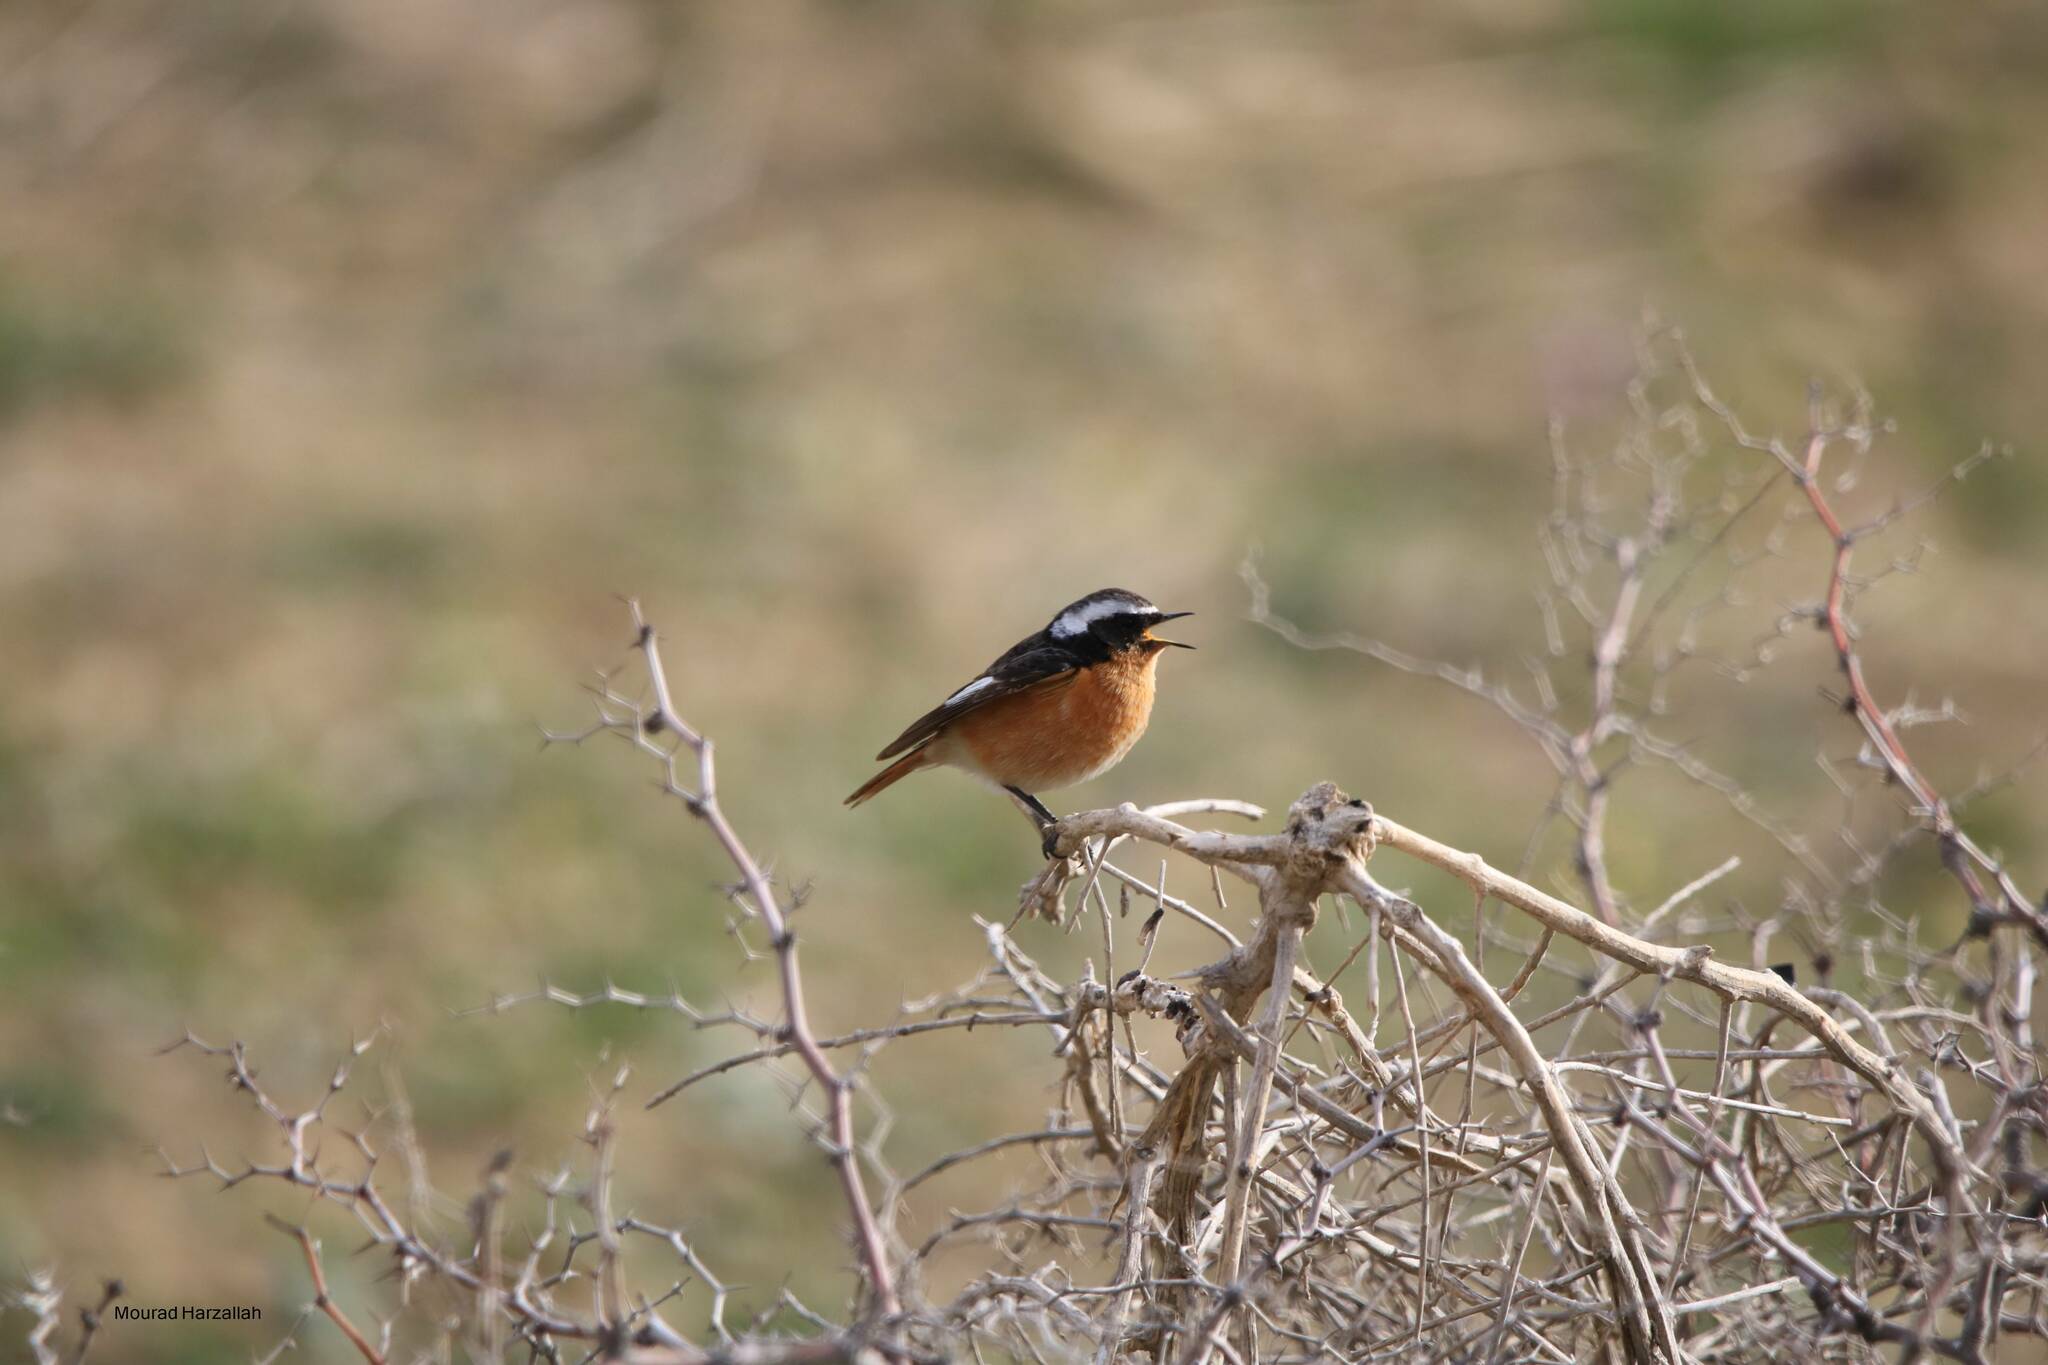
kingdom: Animalia
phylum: Chordata
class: Aves
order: Passeriformes
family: Muscicapidae
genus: Phoenicurus
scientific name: Phoenicurus moussieri
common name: Moussier's redstart
